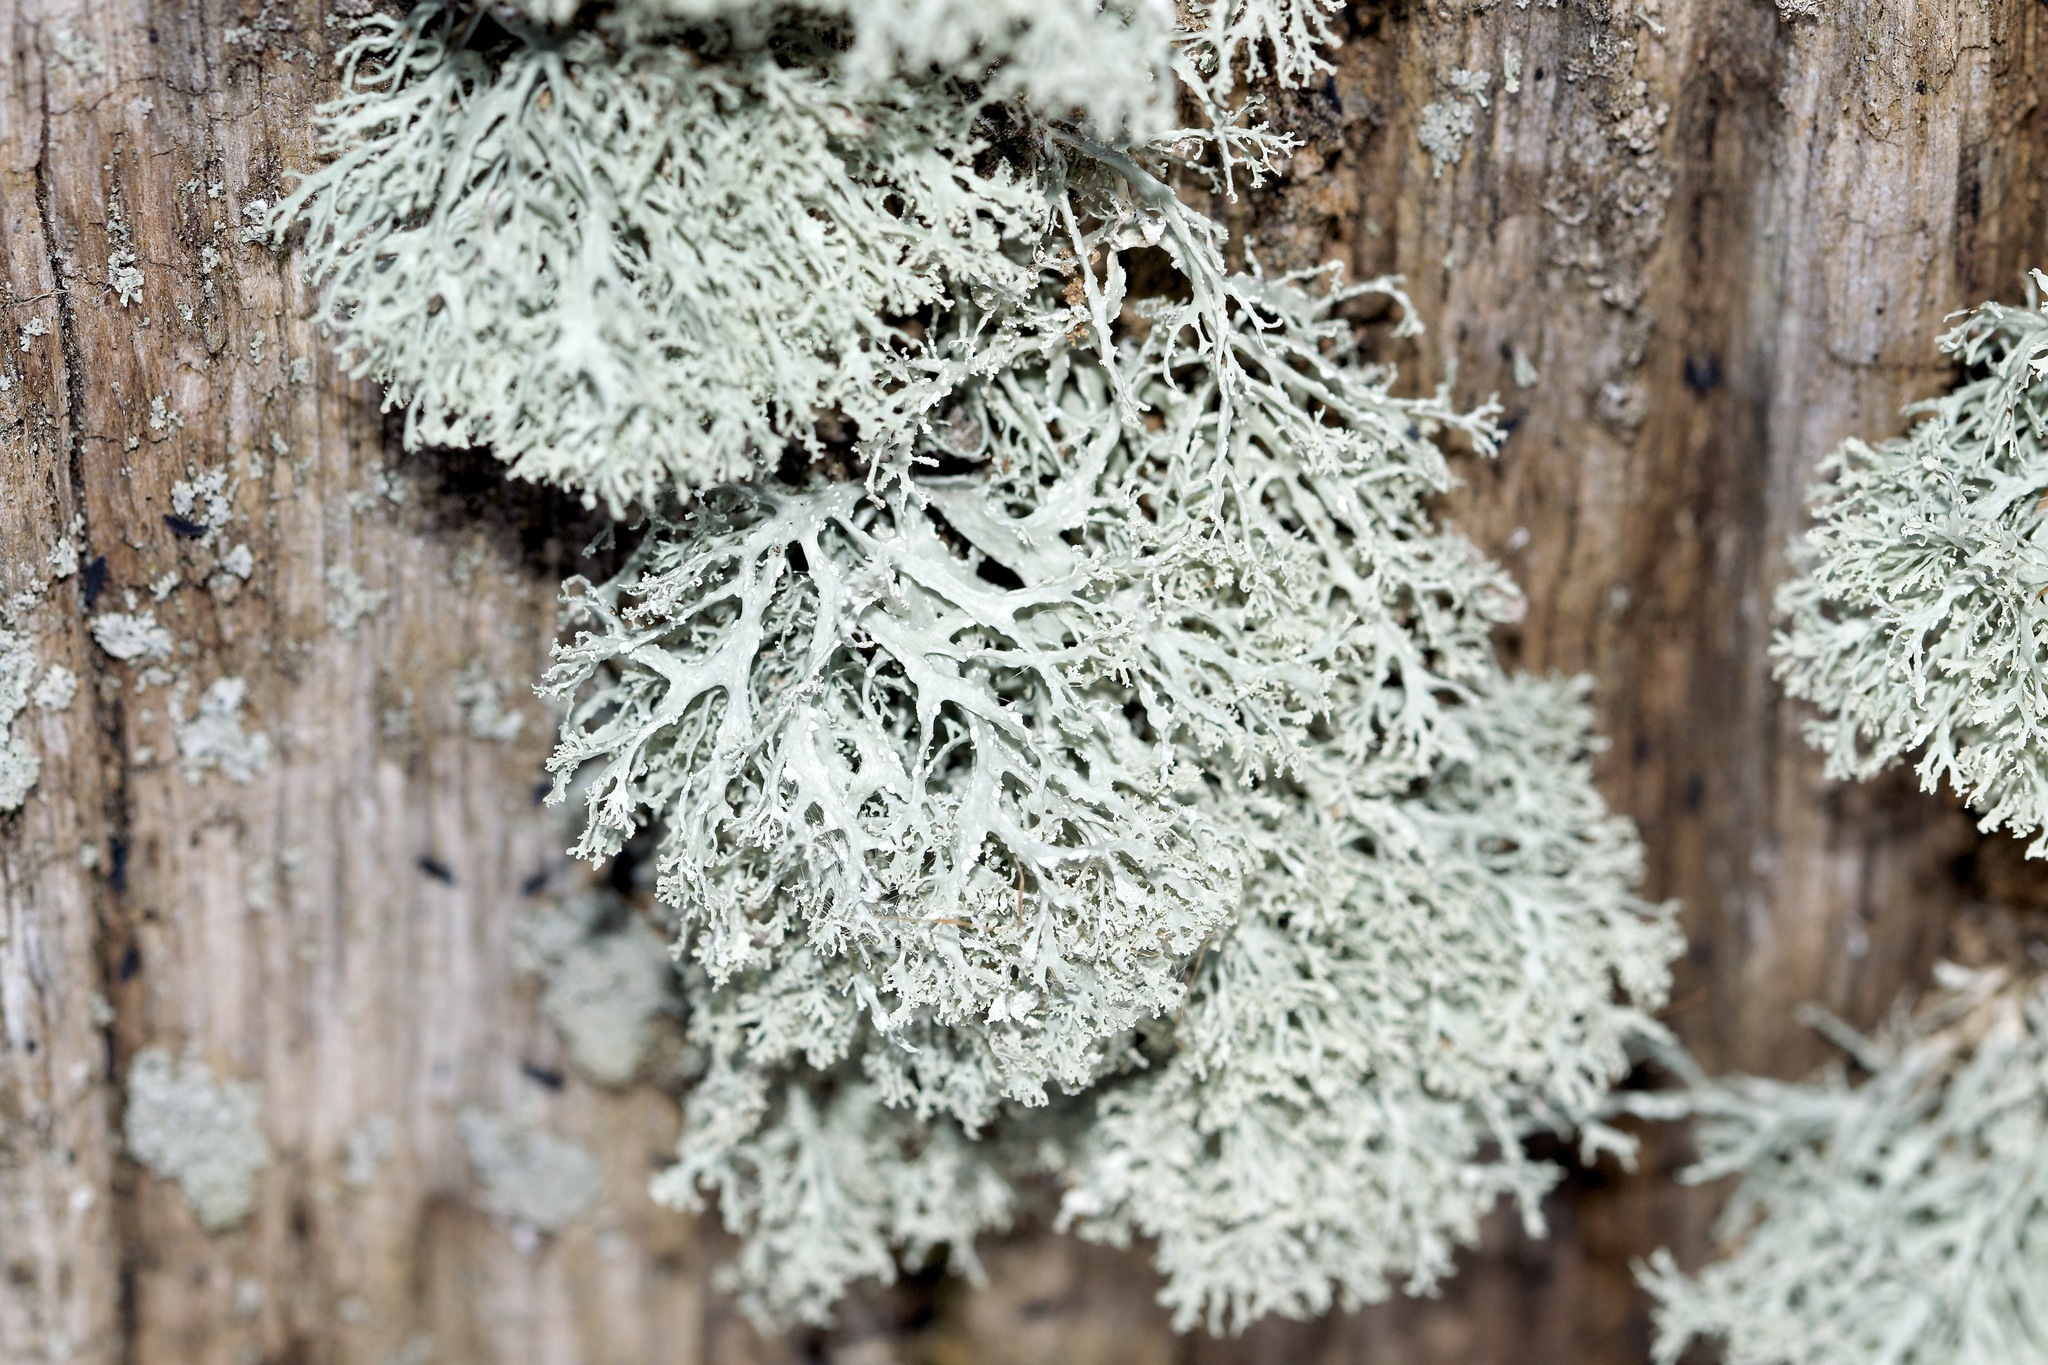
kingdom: Fungi
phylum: Ascomycota
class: Lecanoromycetes
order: Lecanorales
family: Ramalinaceae
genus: Ramalina
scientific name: Ramalina intermedia
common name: Rock bushy lichen
